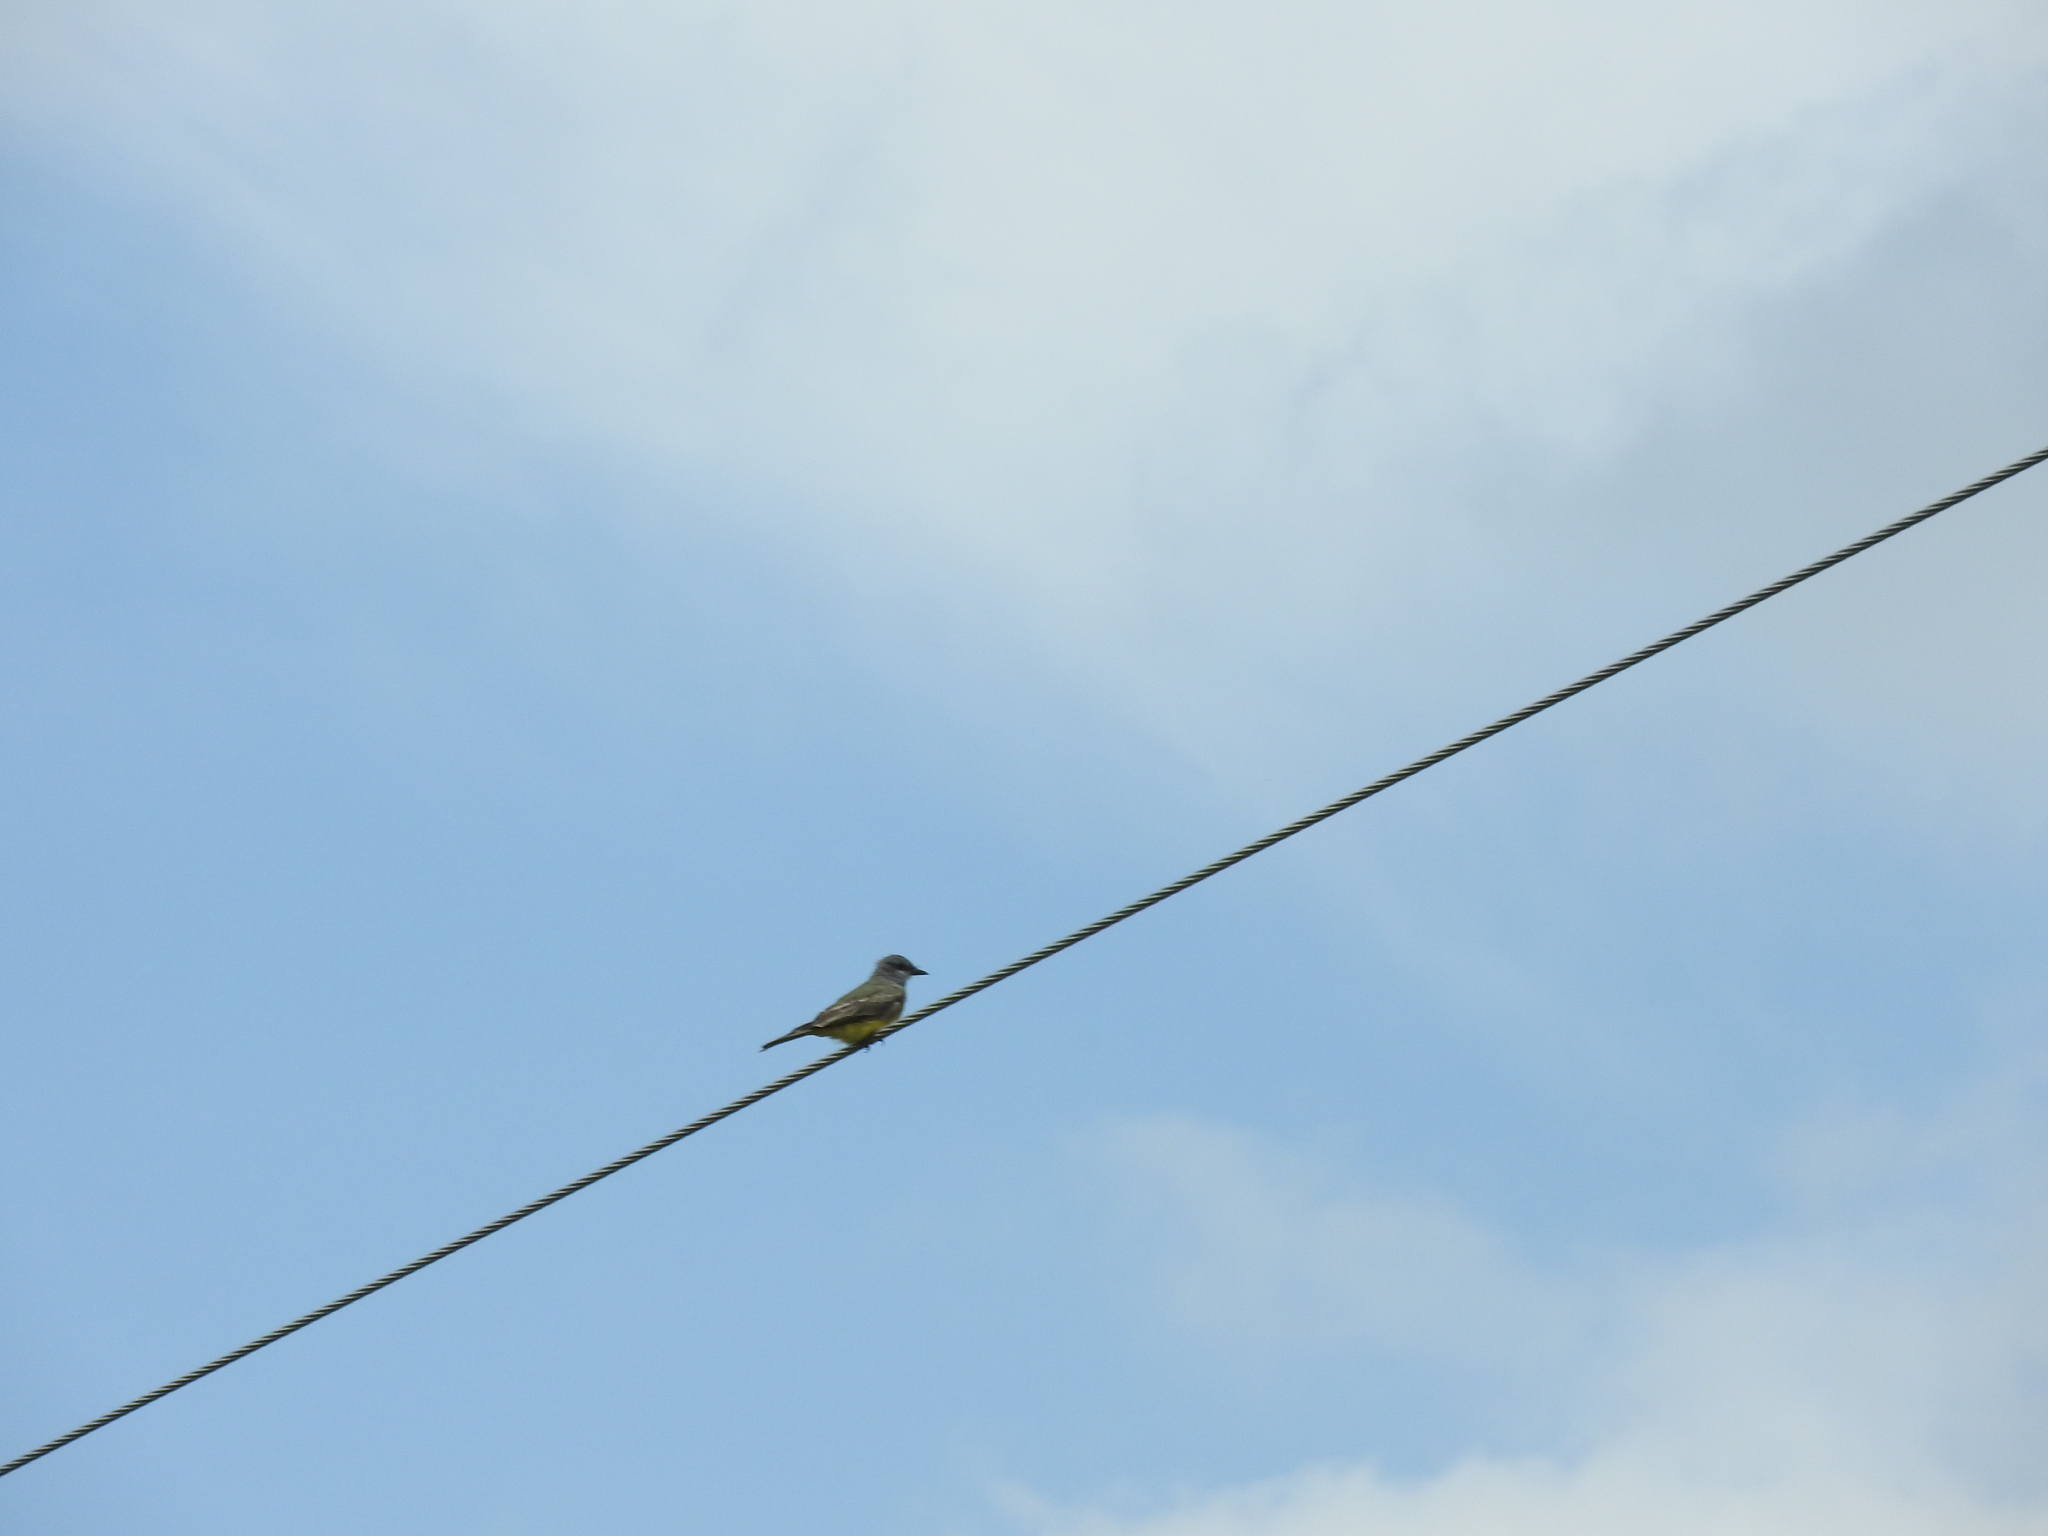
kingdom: Animalia
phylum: Chordata
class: Aves
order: Passeriformes
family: Tyrannidae
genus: Tyrannus
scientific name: Tyrannus vociferans
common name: Cassin's kingbird
